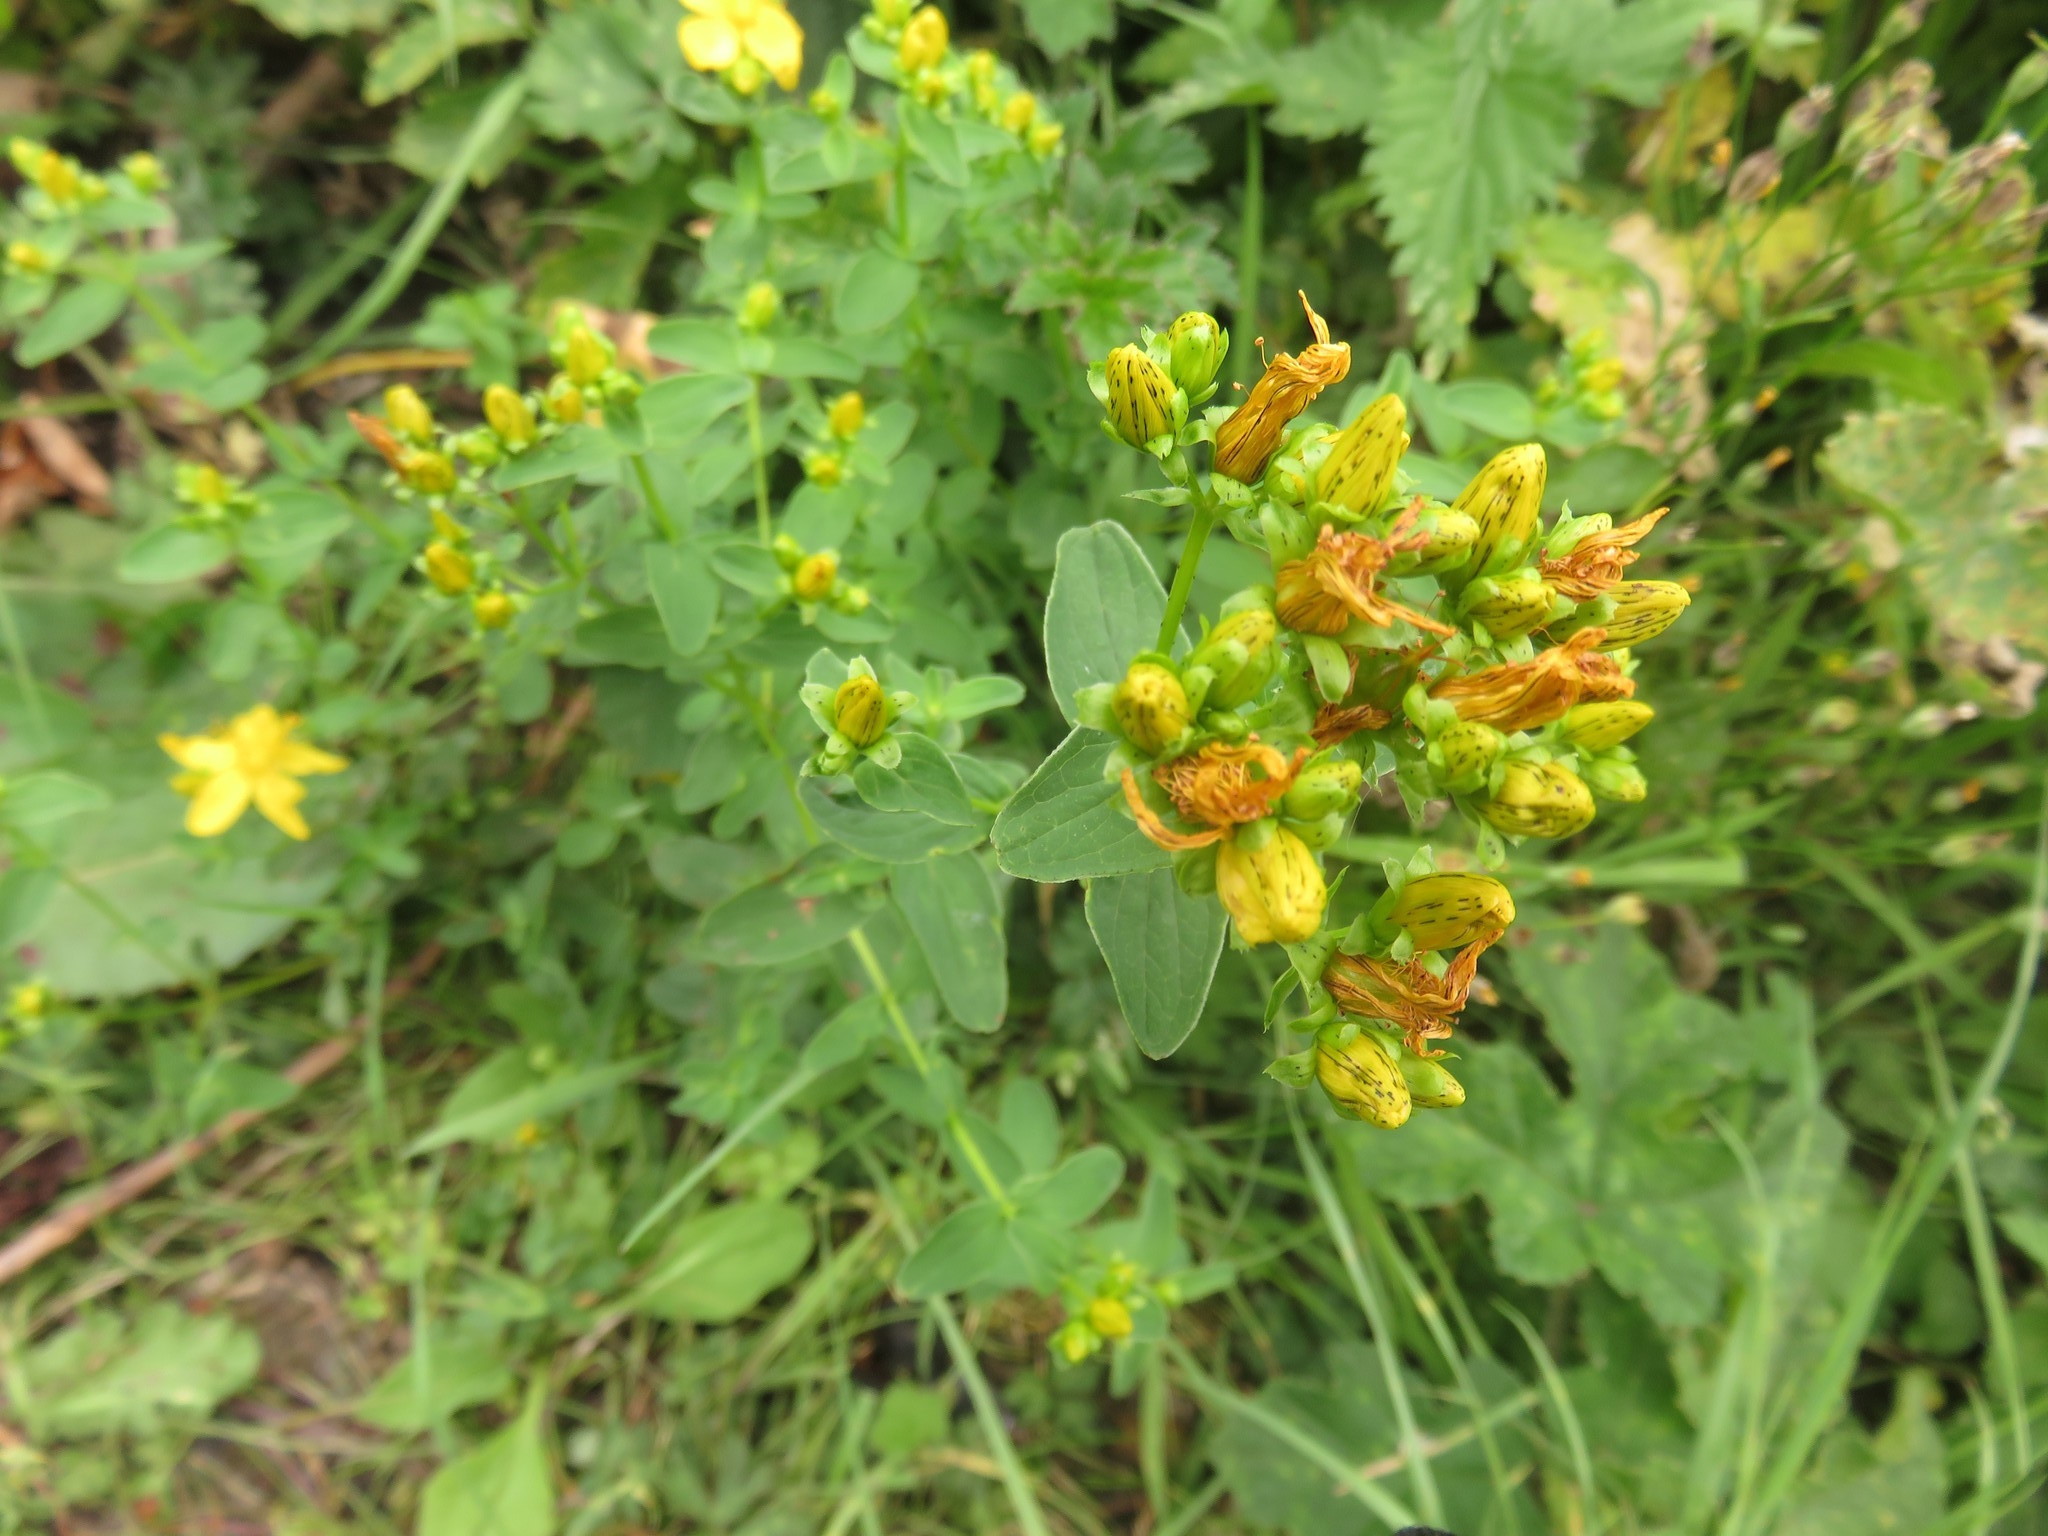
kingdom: Plantae
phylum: Tracheophyta
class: Magnoliopsida
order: Malpighiales
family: Hypericaceae
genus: Hypericum
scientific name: Hypericum maculatum
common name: Imperforate st. john's-wort
